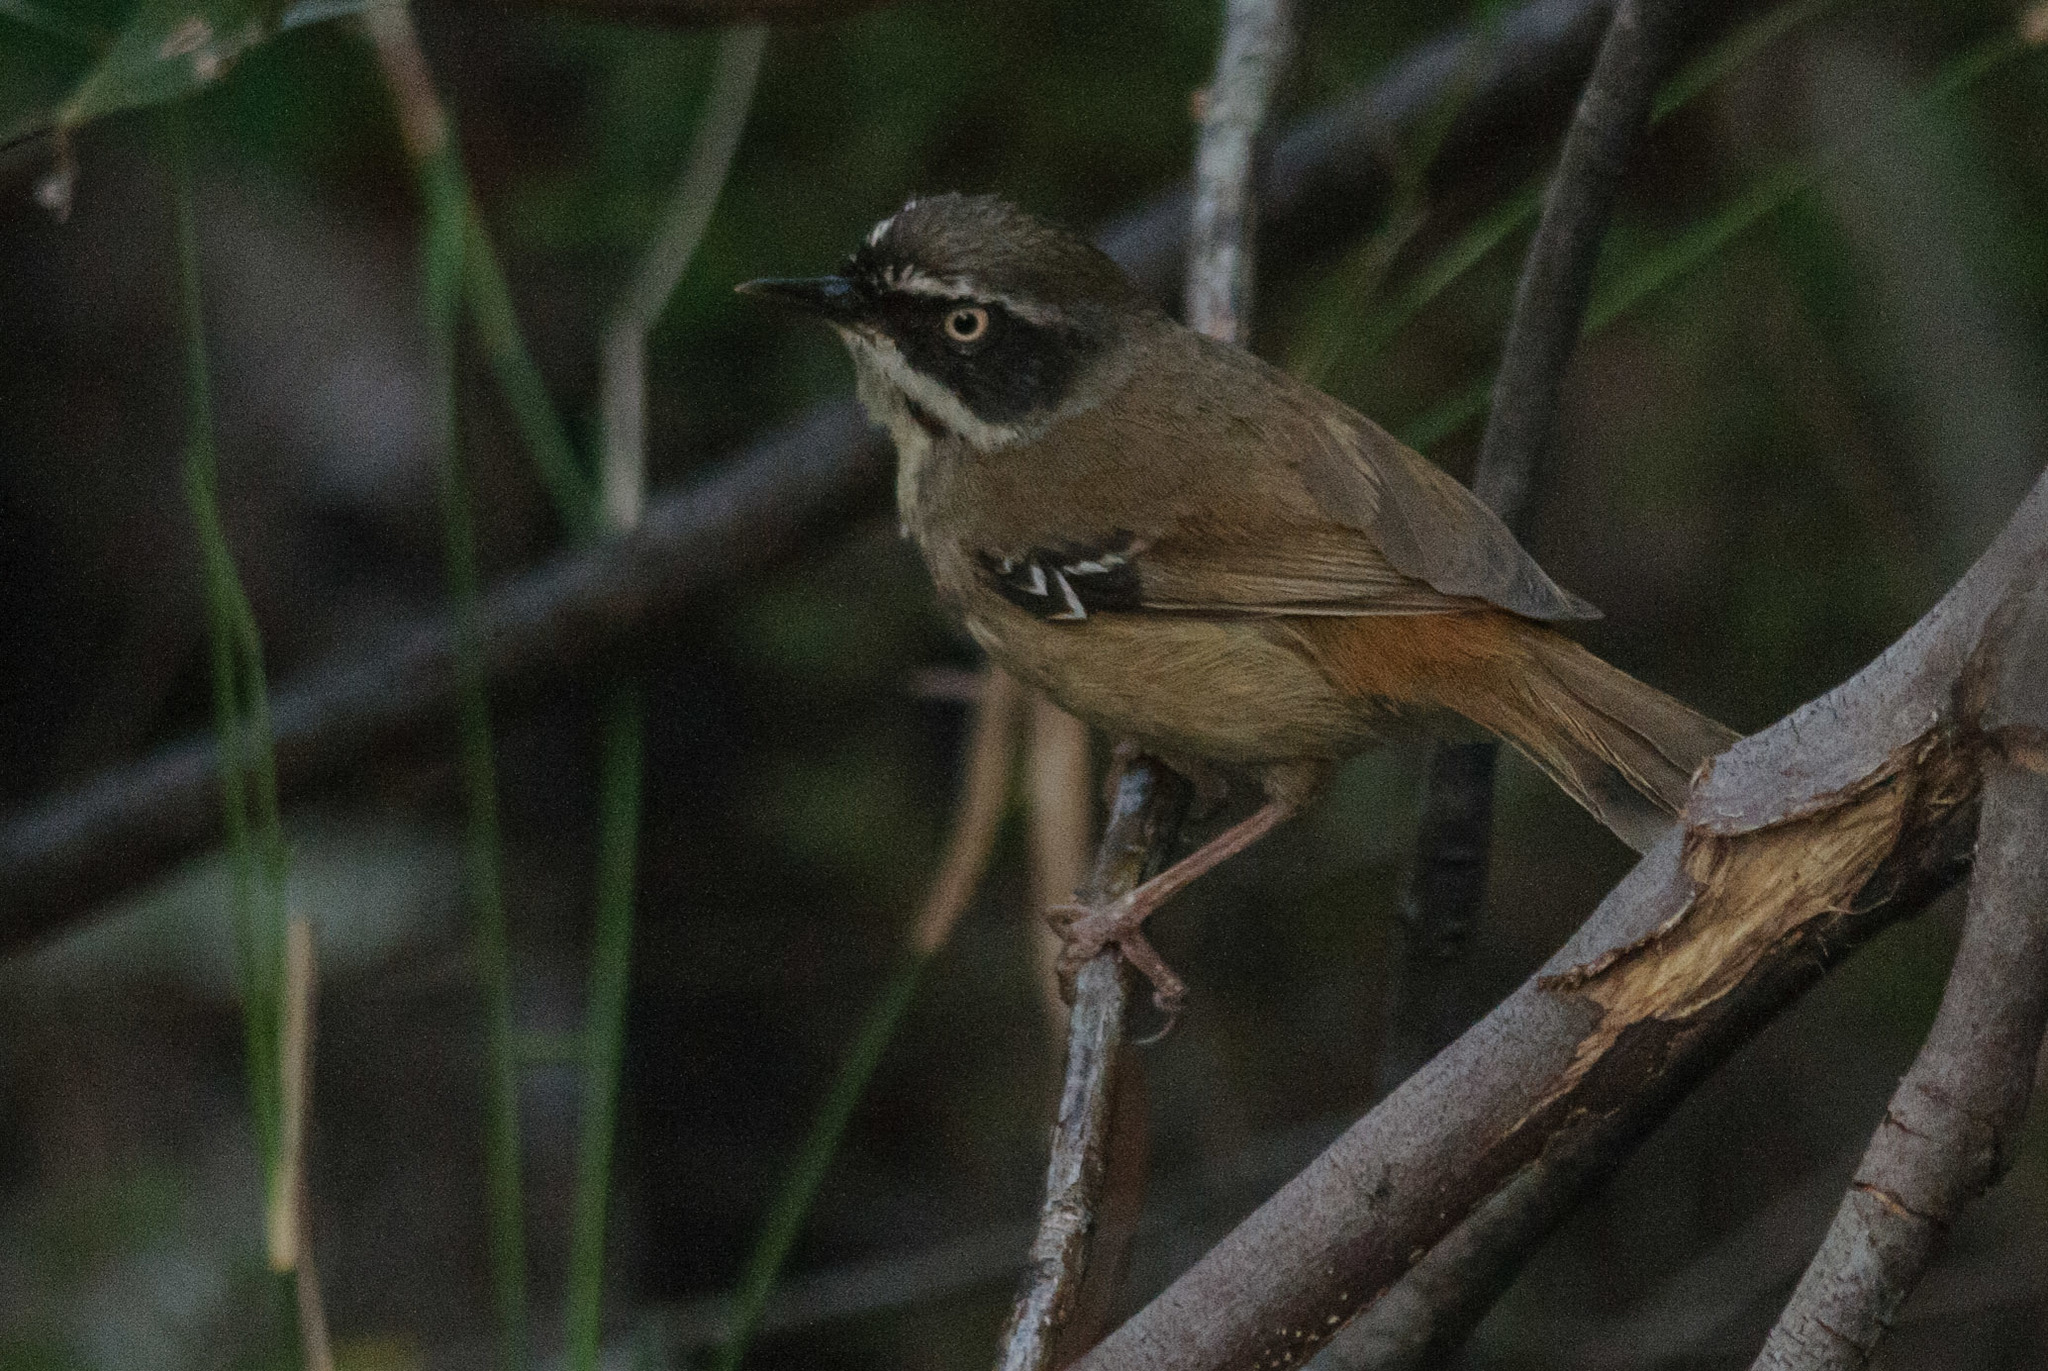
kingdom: Animalia
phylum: Chordata
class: Aves
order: Passeriformes
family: Acanthizidae
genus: Sericornis
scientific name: Sericornis frontalis
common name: White-browed scrubwren
